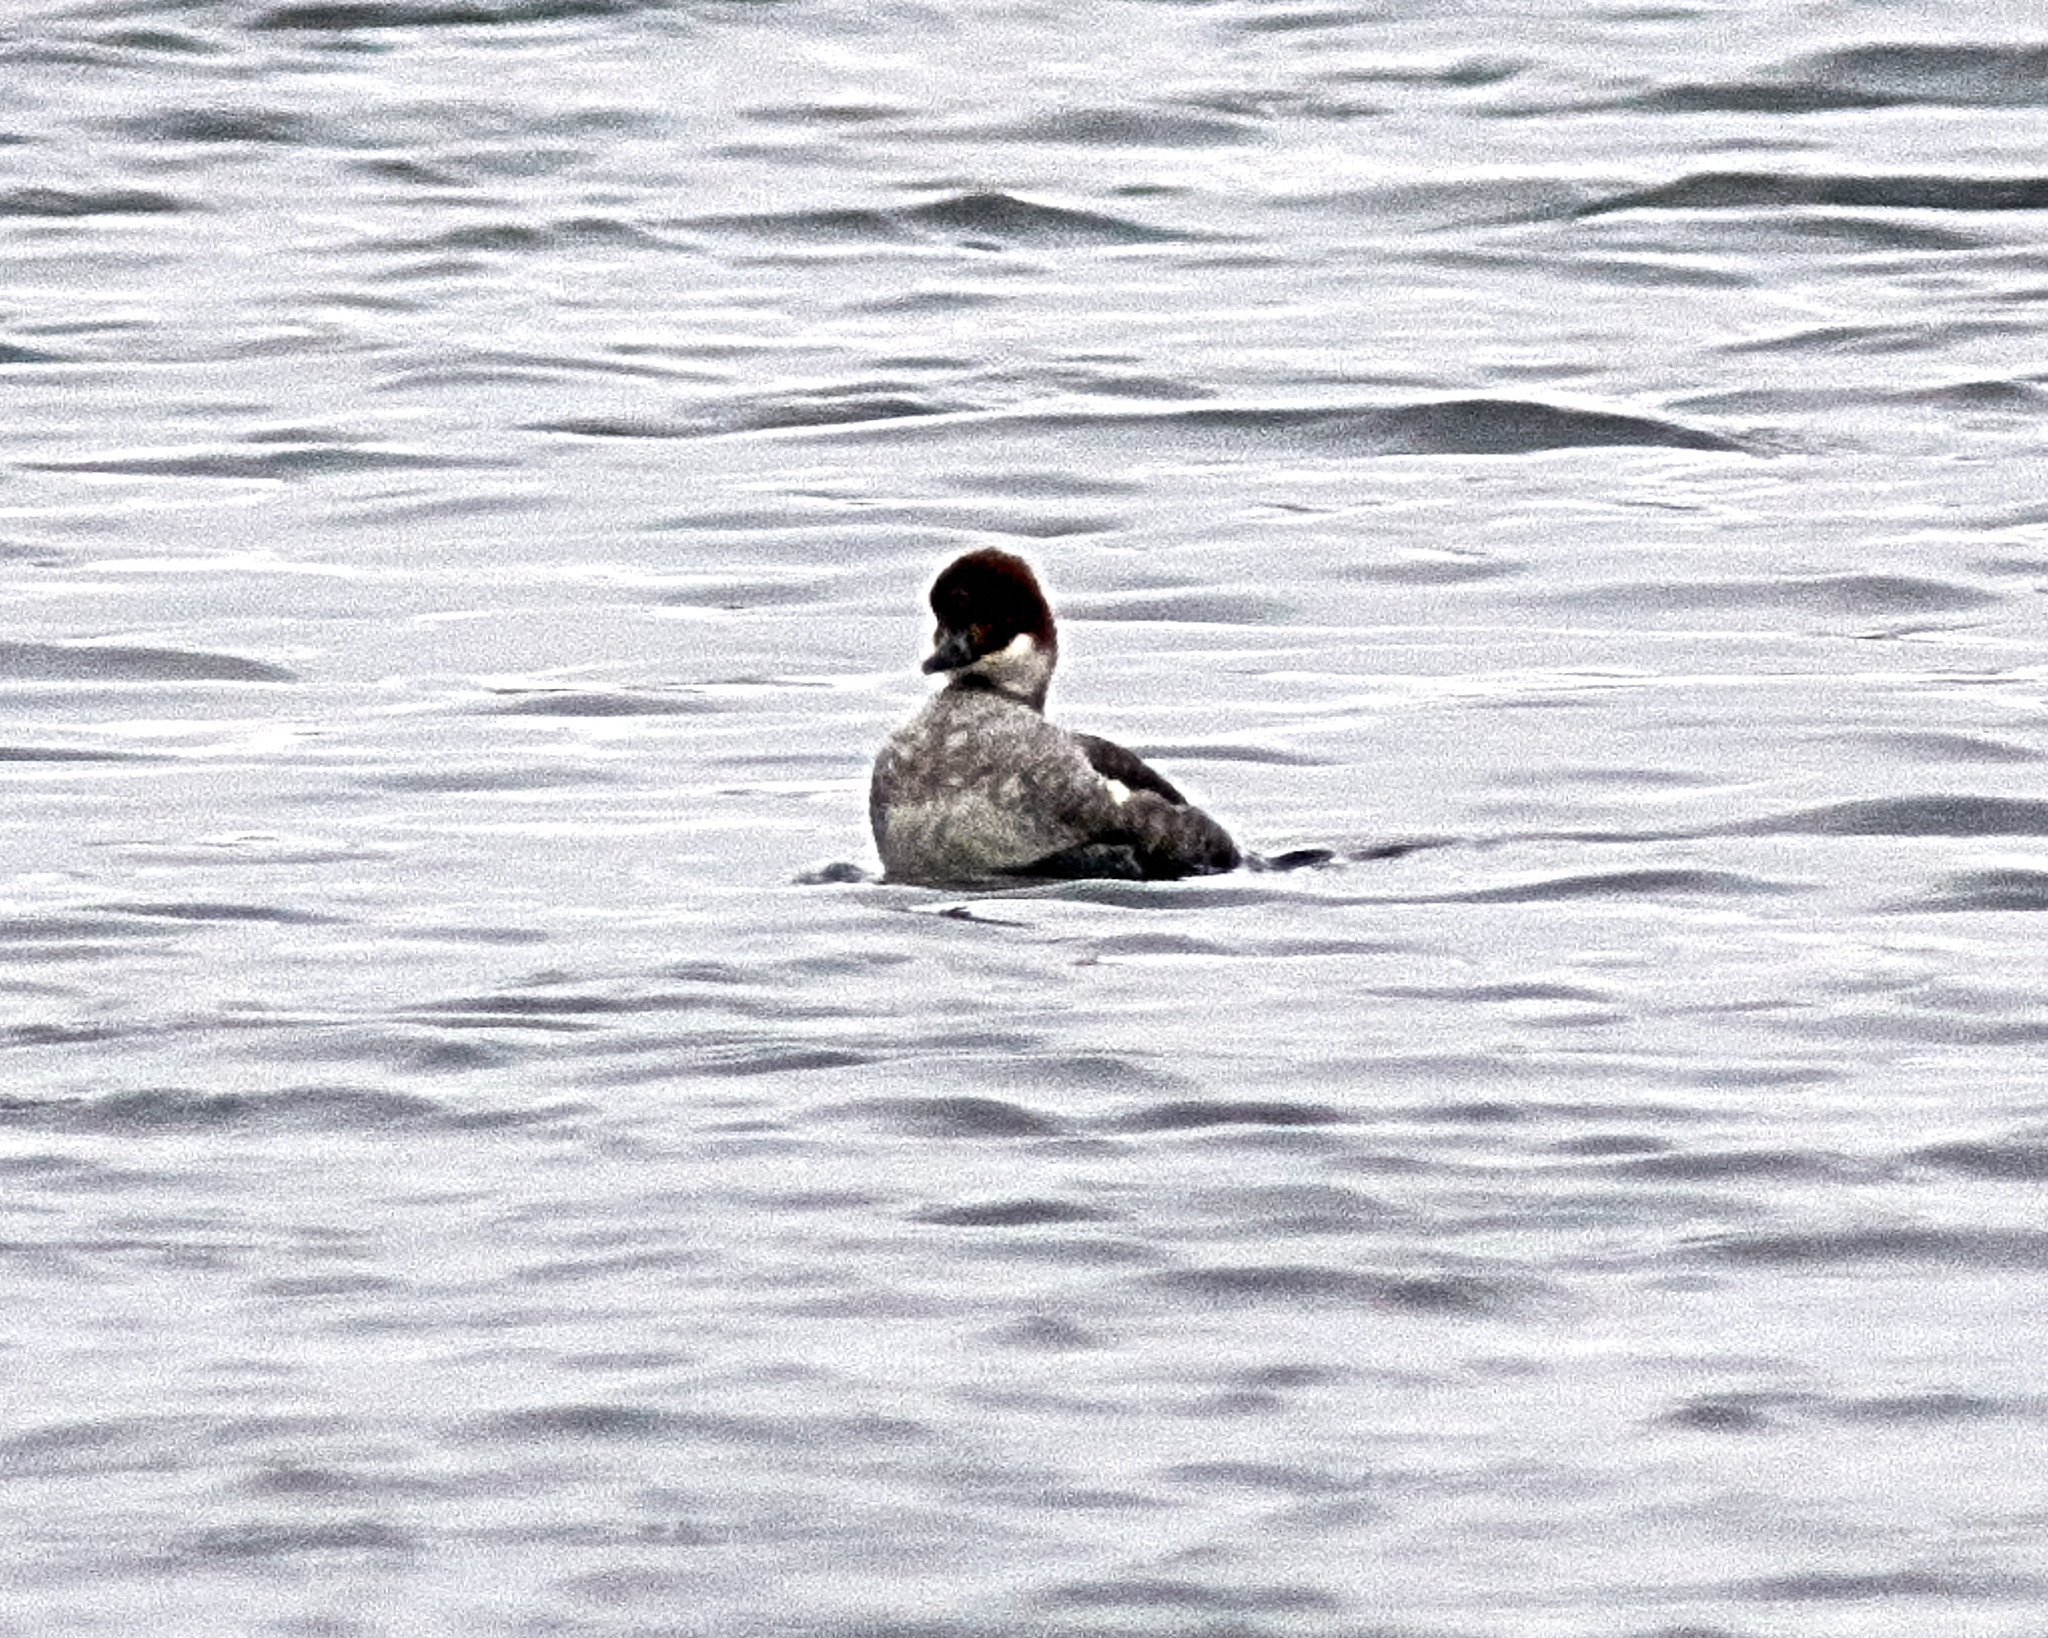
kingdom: Animalia
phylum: Chordata
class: Aves
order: Anseriformes
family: Anatidae
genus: Mergellus
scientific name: Mergellus albellus
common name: Smew
